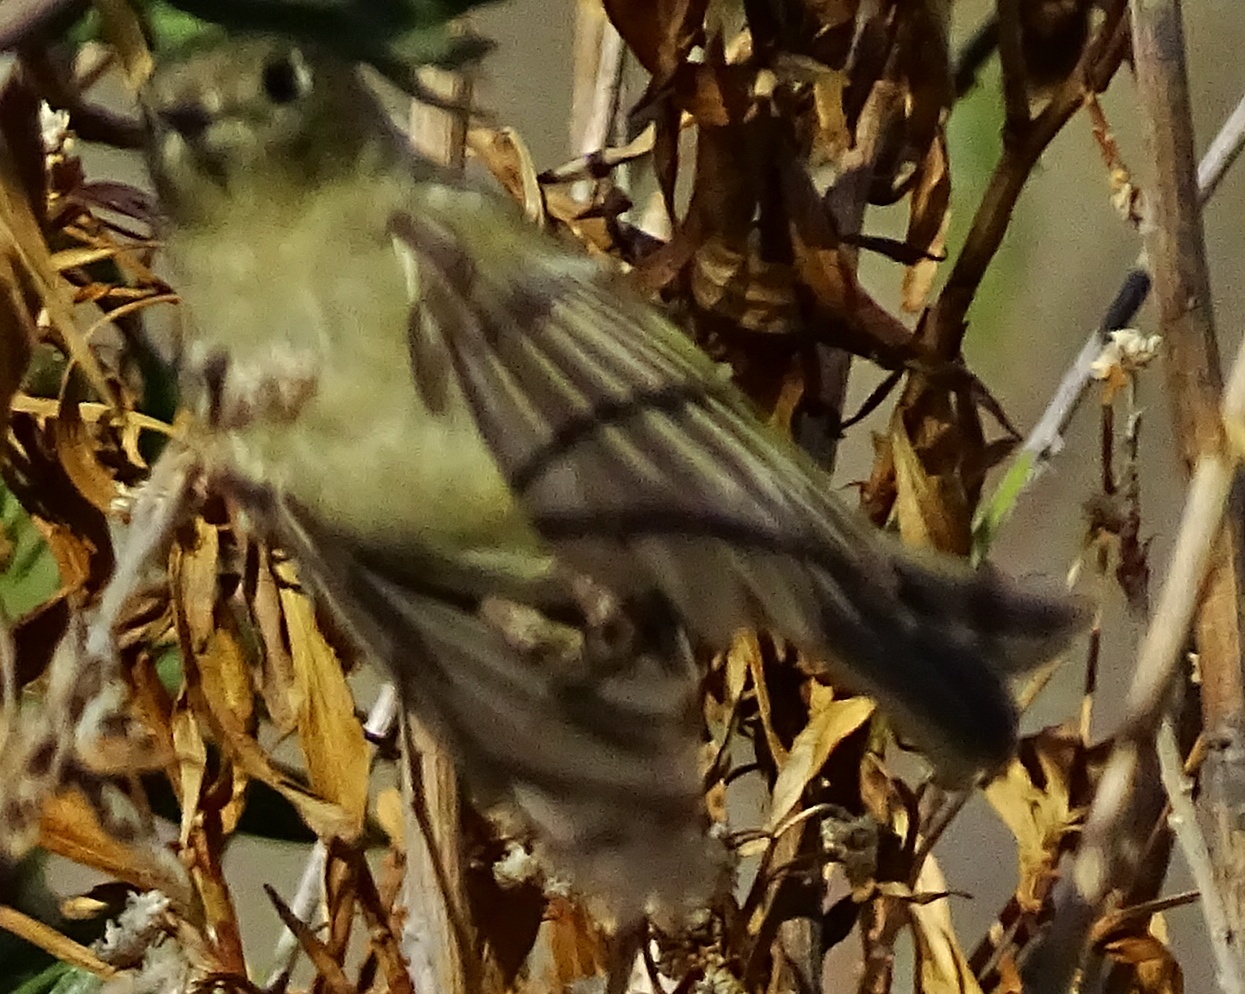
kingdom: Animalia
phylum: Chordata
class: Aves
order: Passeriformes
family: Regulidae
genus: Regulus
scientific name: Regulus calendula
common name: Ruby-crowned kinglet
